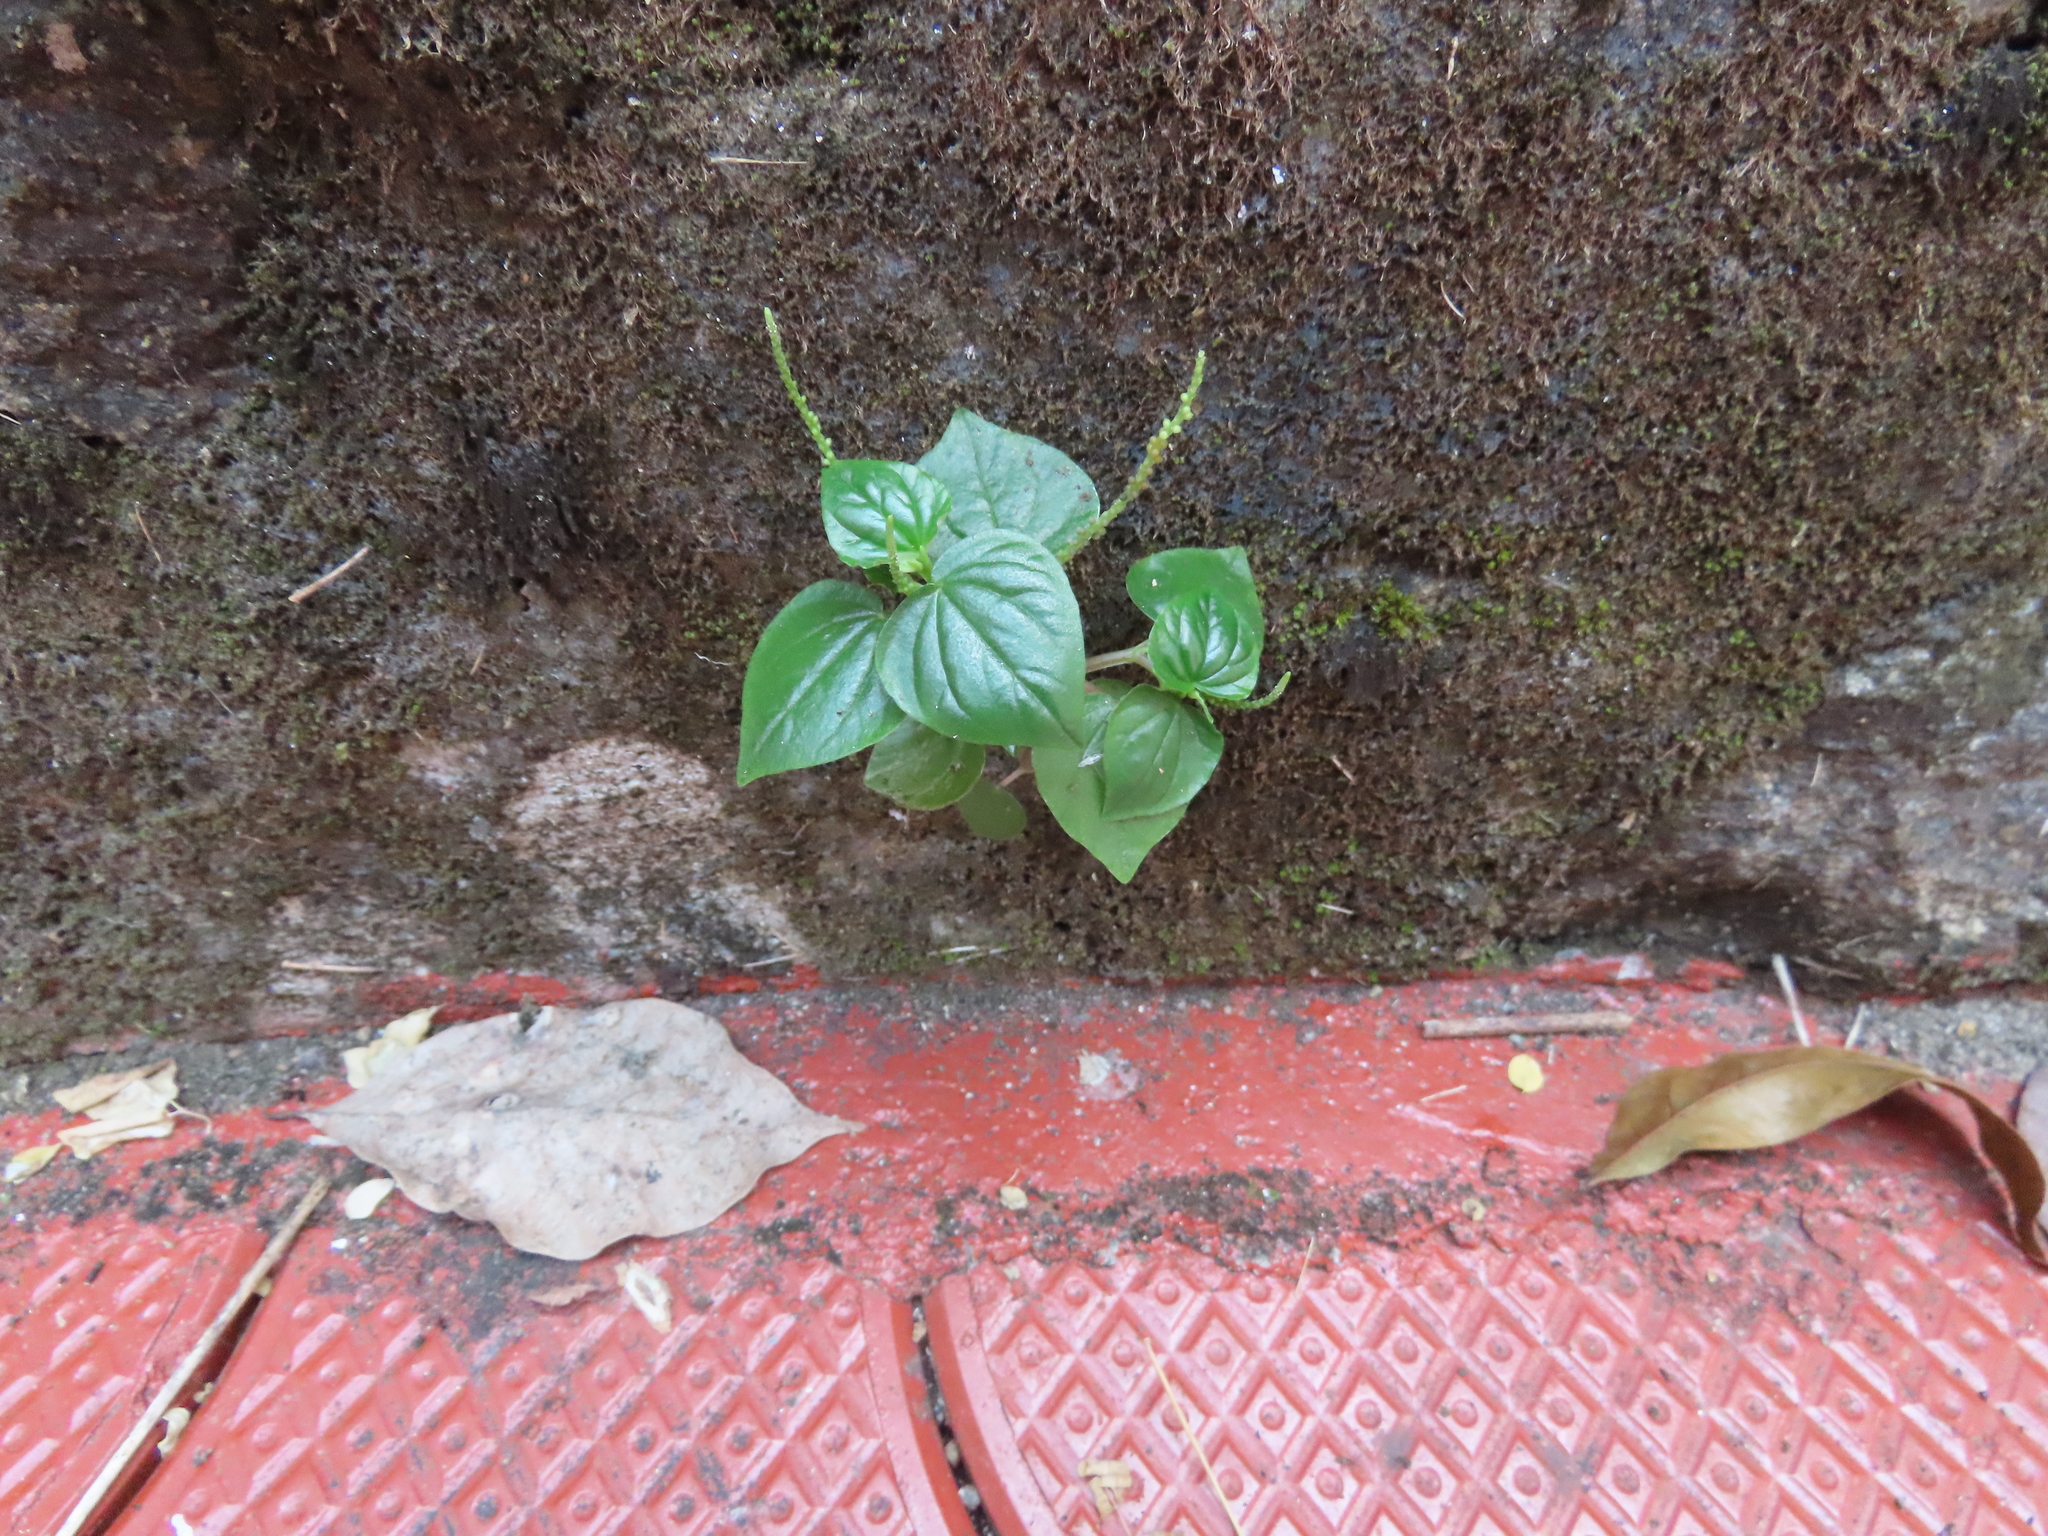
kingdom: Plantae
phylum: Tracheophyta
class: Magnoliopsida
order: Piperales
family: Piperaceae
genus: Peperomia
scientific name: Peperomia pellucida
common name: Man to man
